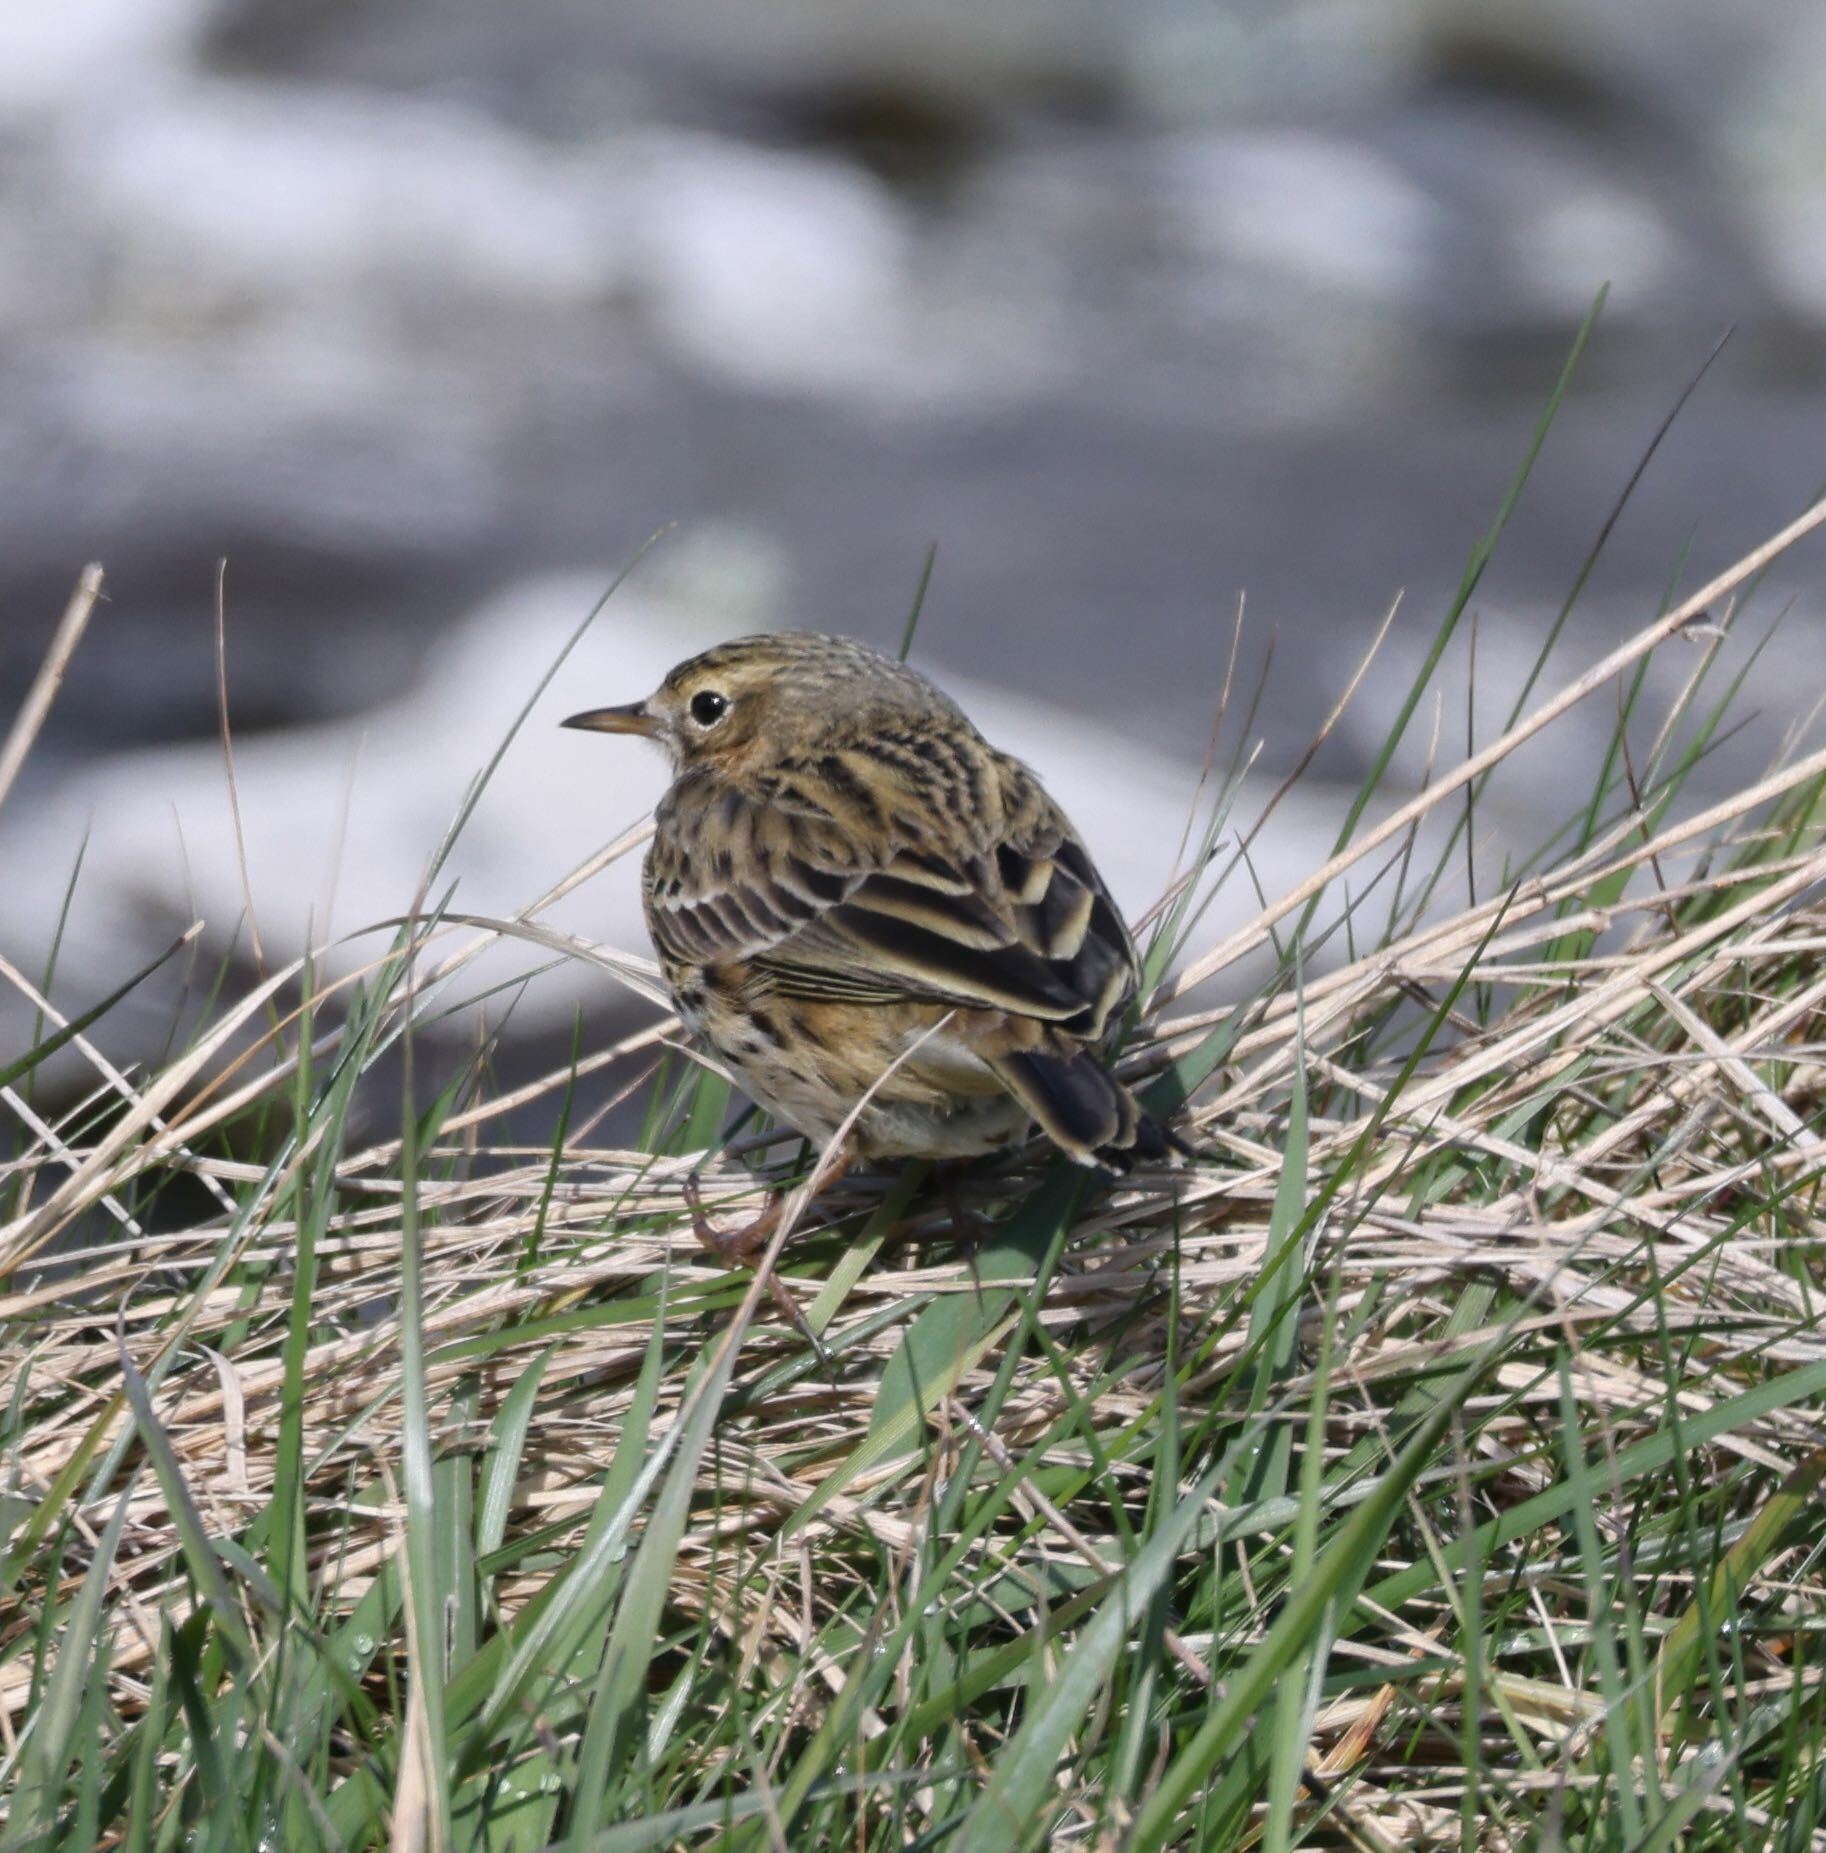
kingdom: Animalia
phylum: Chordata
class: Aves
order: Passeriformes
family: Motacillidae
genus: Anthus
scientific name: Anthus pratensis
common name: Meadow pipit
